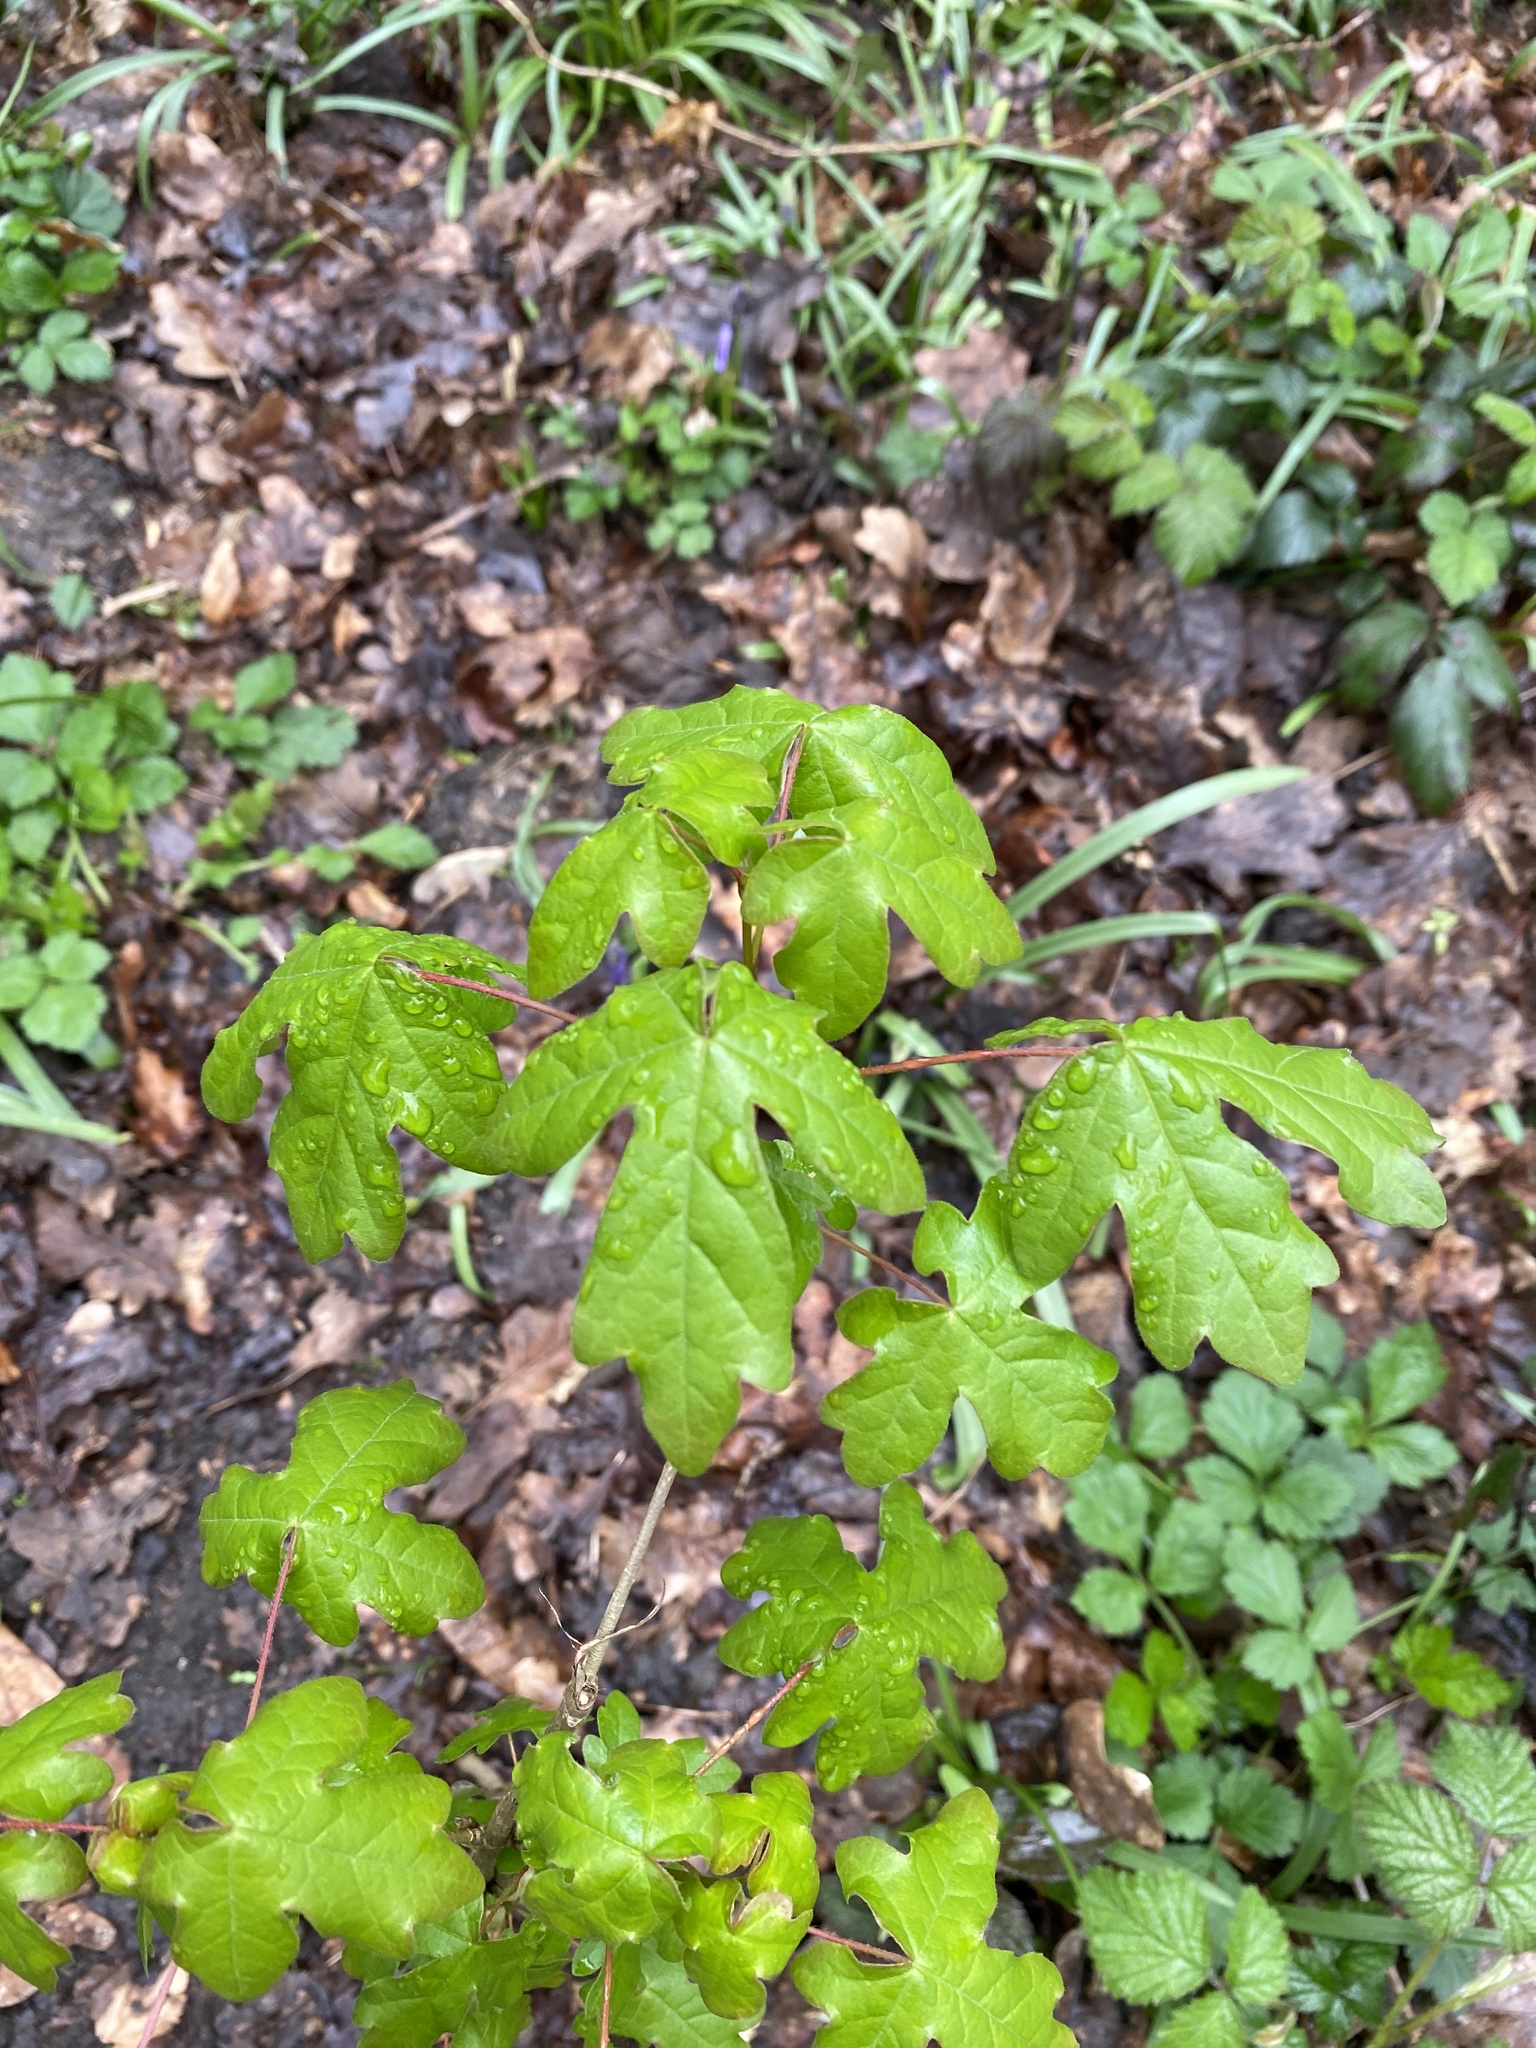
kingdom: Plantae
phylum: Tracheophyta
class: Magnoliopsida
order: Sapindales
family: Sapindaceae
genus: Acer
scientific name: Acer campestre
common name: Field maple
